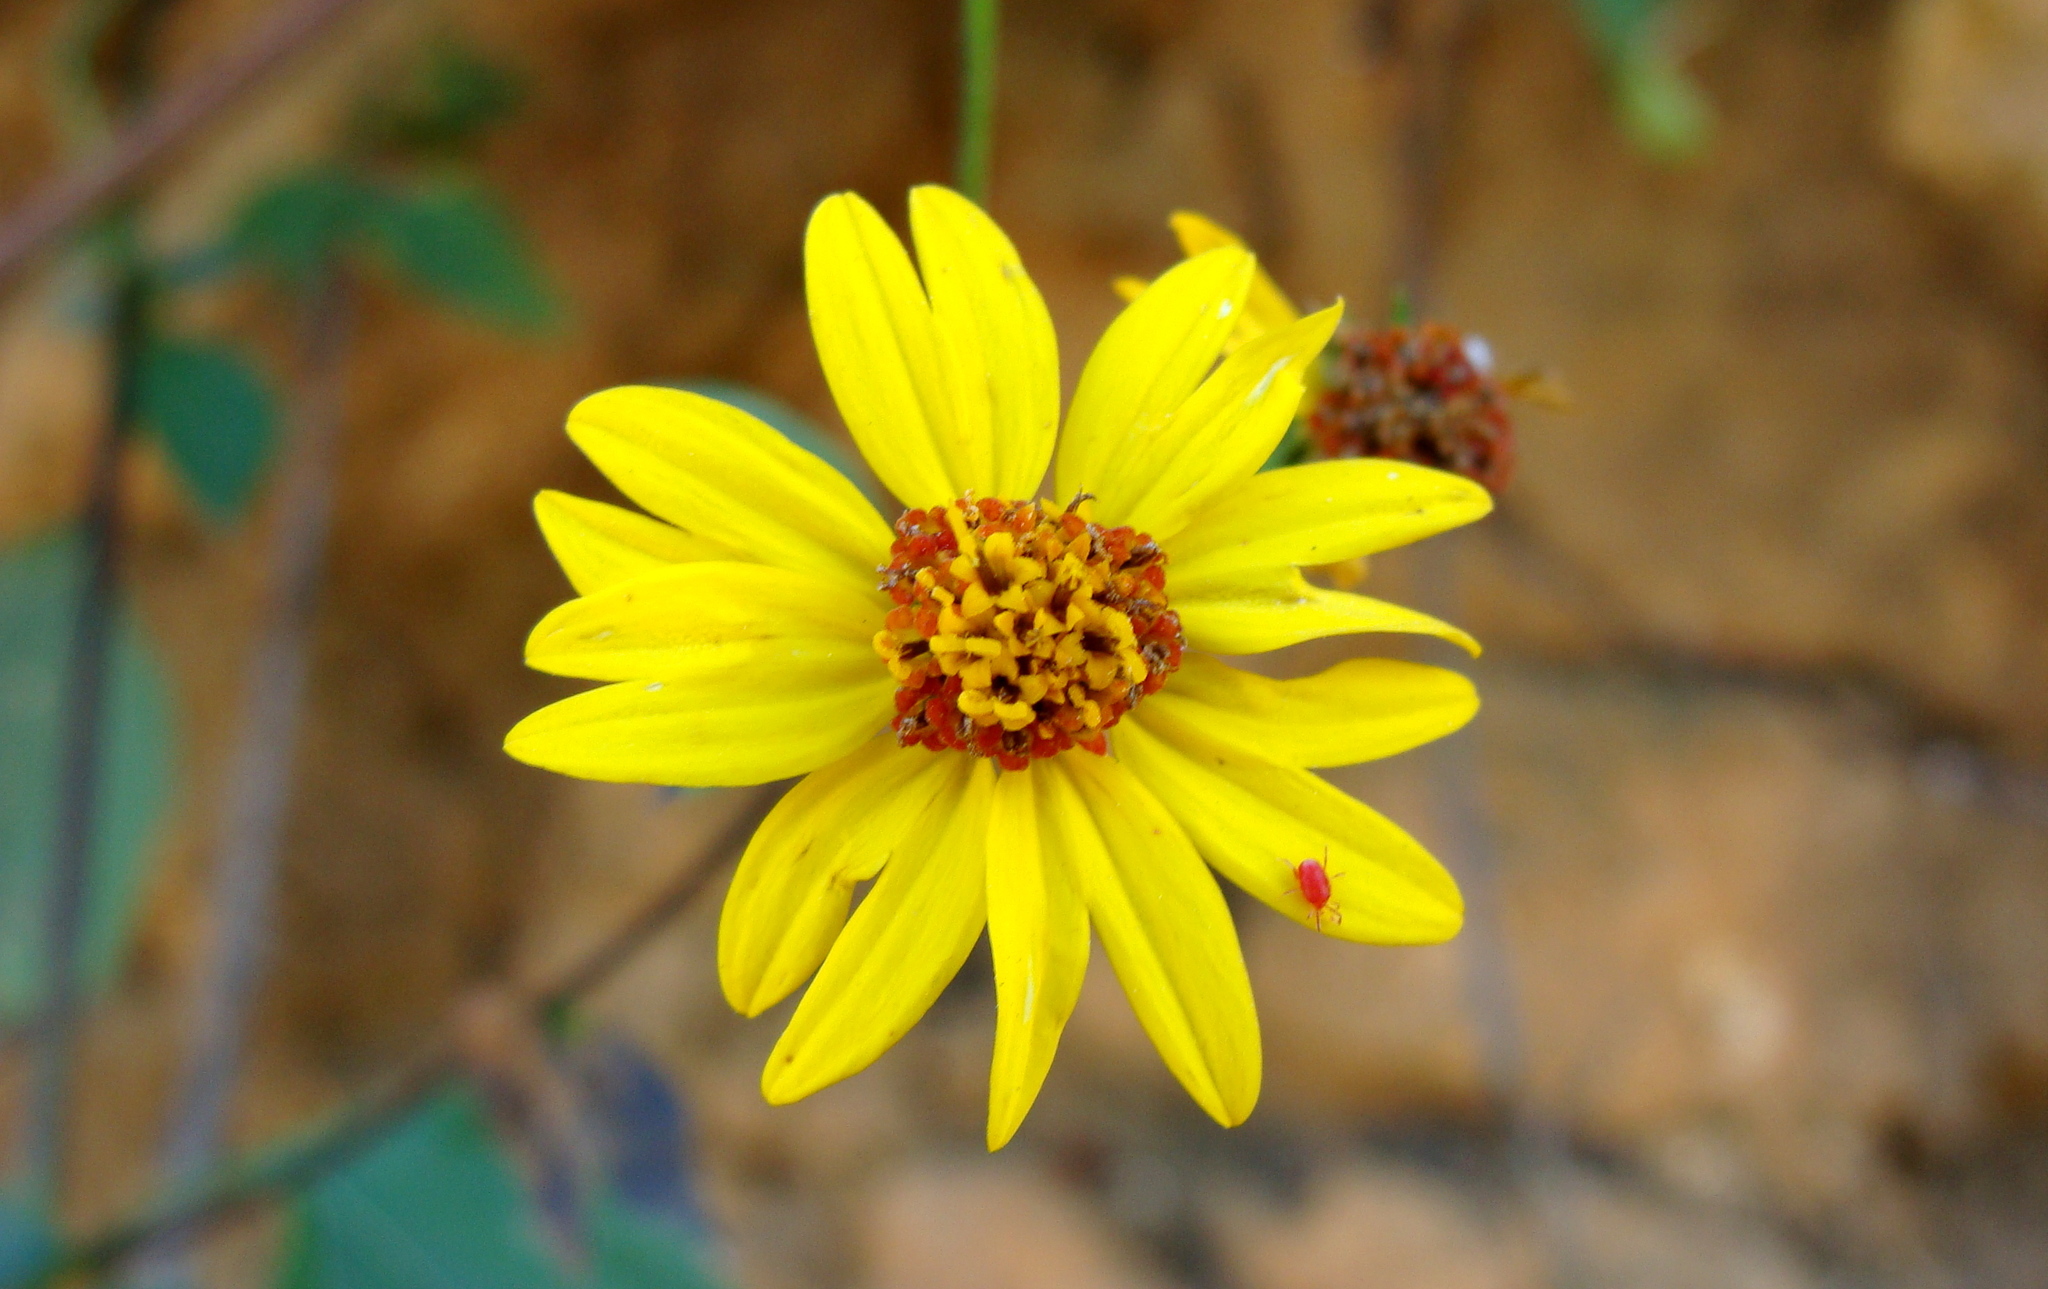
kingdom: Plantae
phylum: Tracheophyta
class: Magnoliopsida
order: Asterales
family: Asteraceae
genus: Perymenium
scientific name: Perymenium ghiesbreghtii
